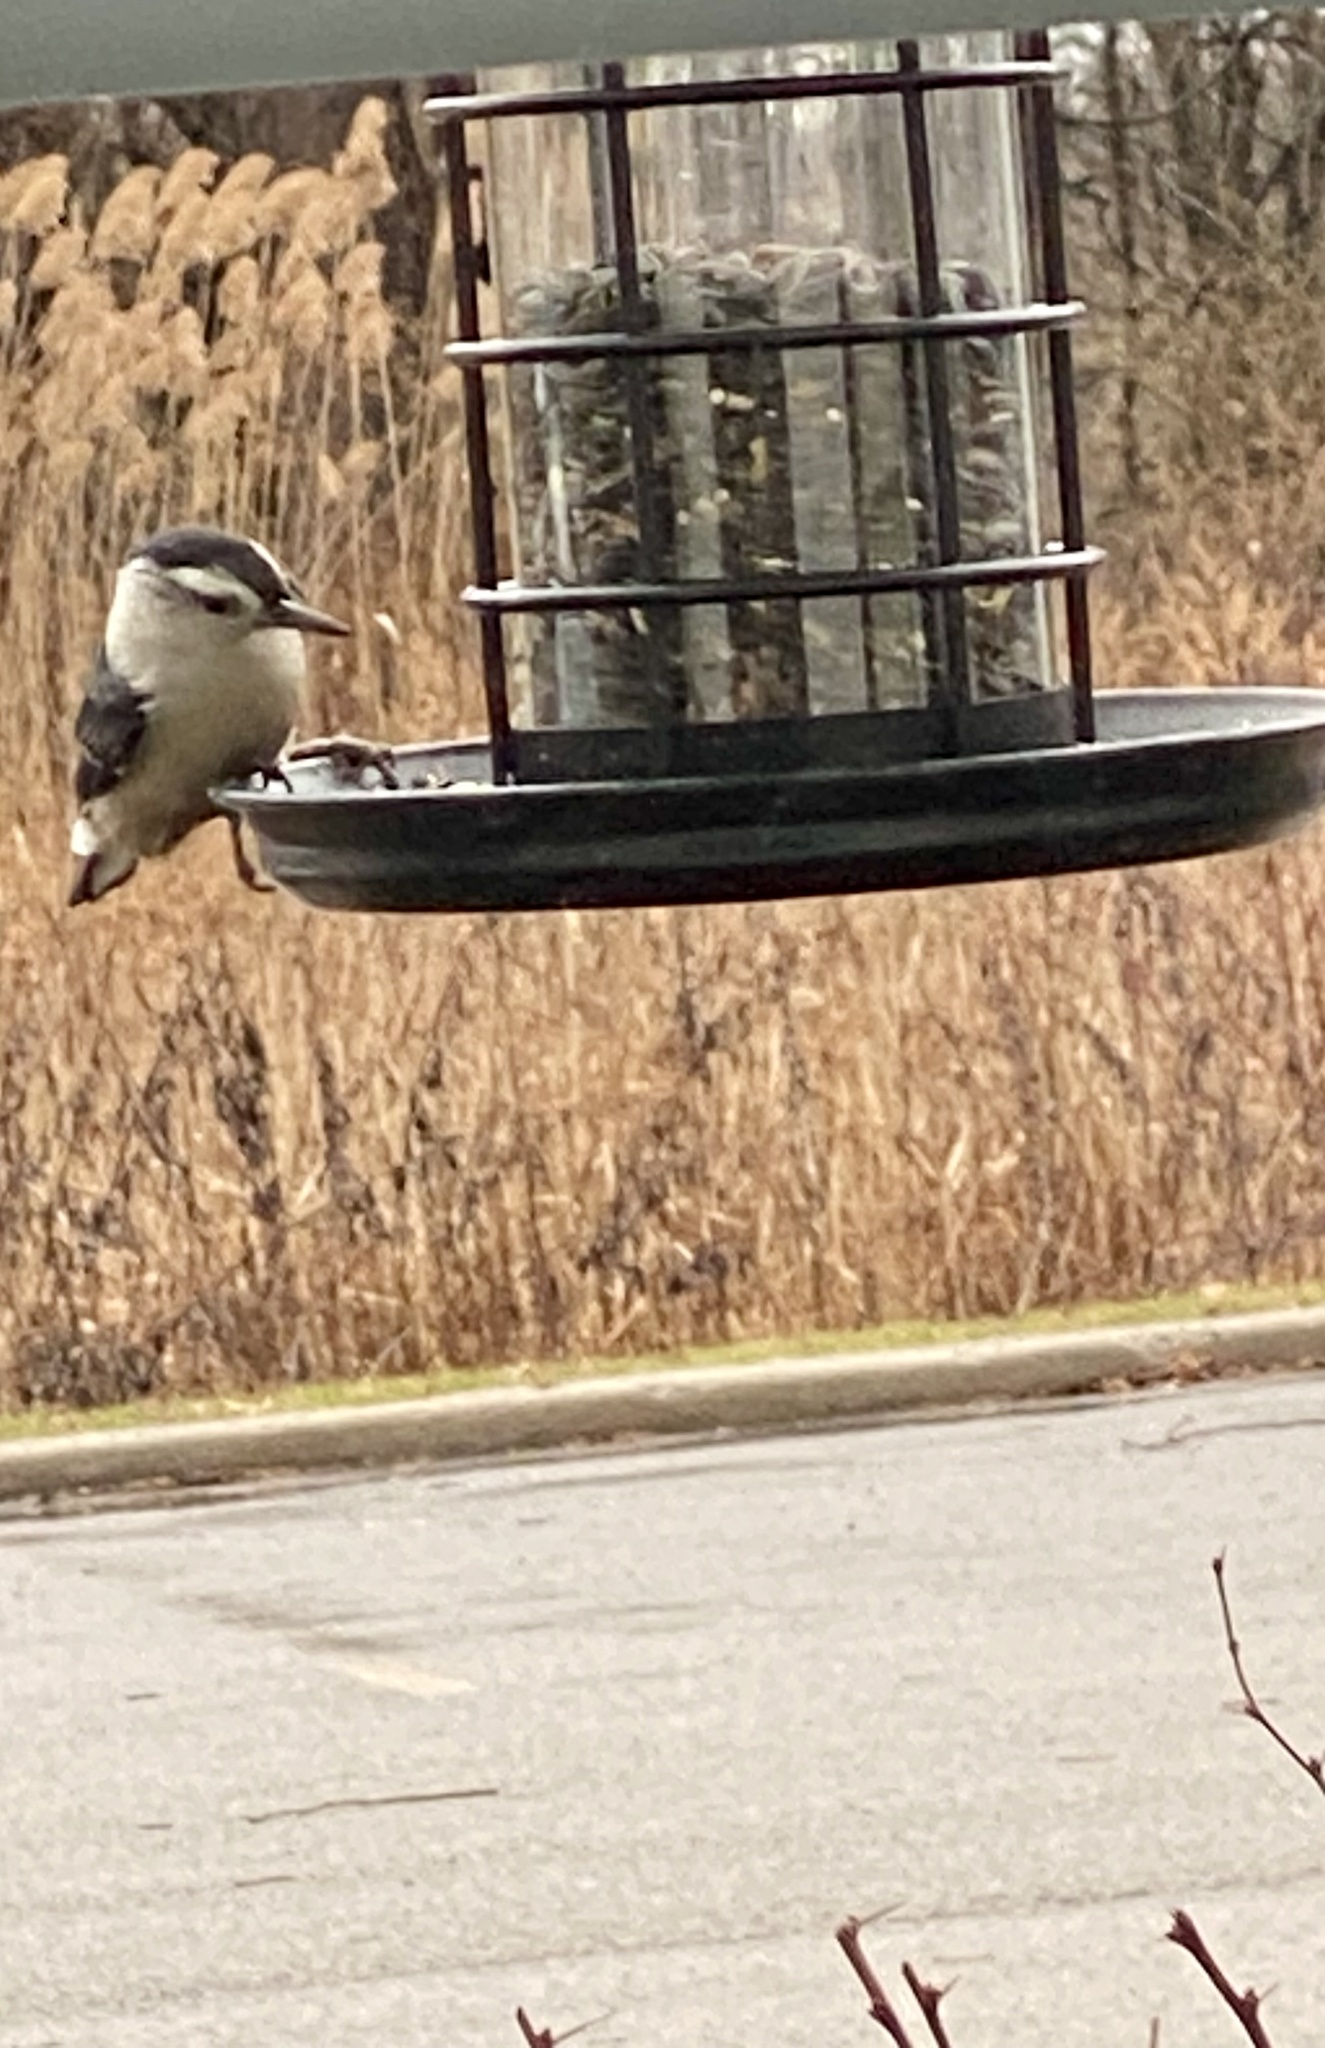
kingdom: Animalia
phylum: Chordata
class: Aves
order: Passeriformes
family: Sittidae
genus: Sitta
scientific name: Sitta carolinensis
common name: White-breasted nuthatch
